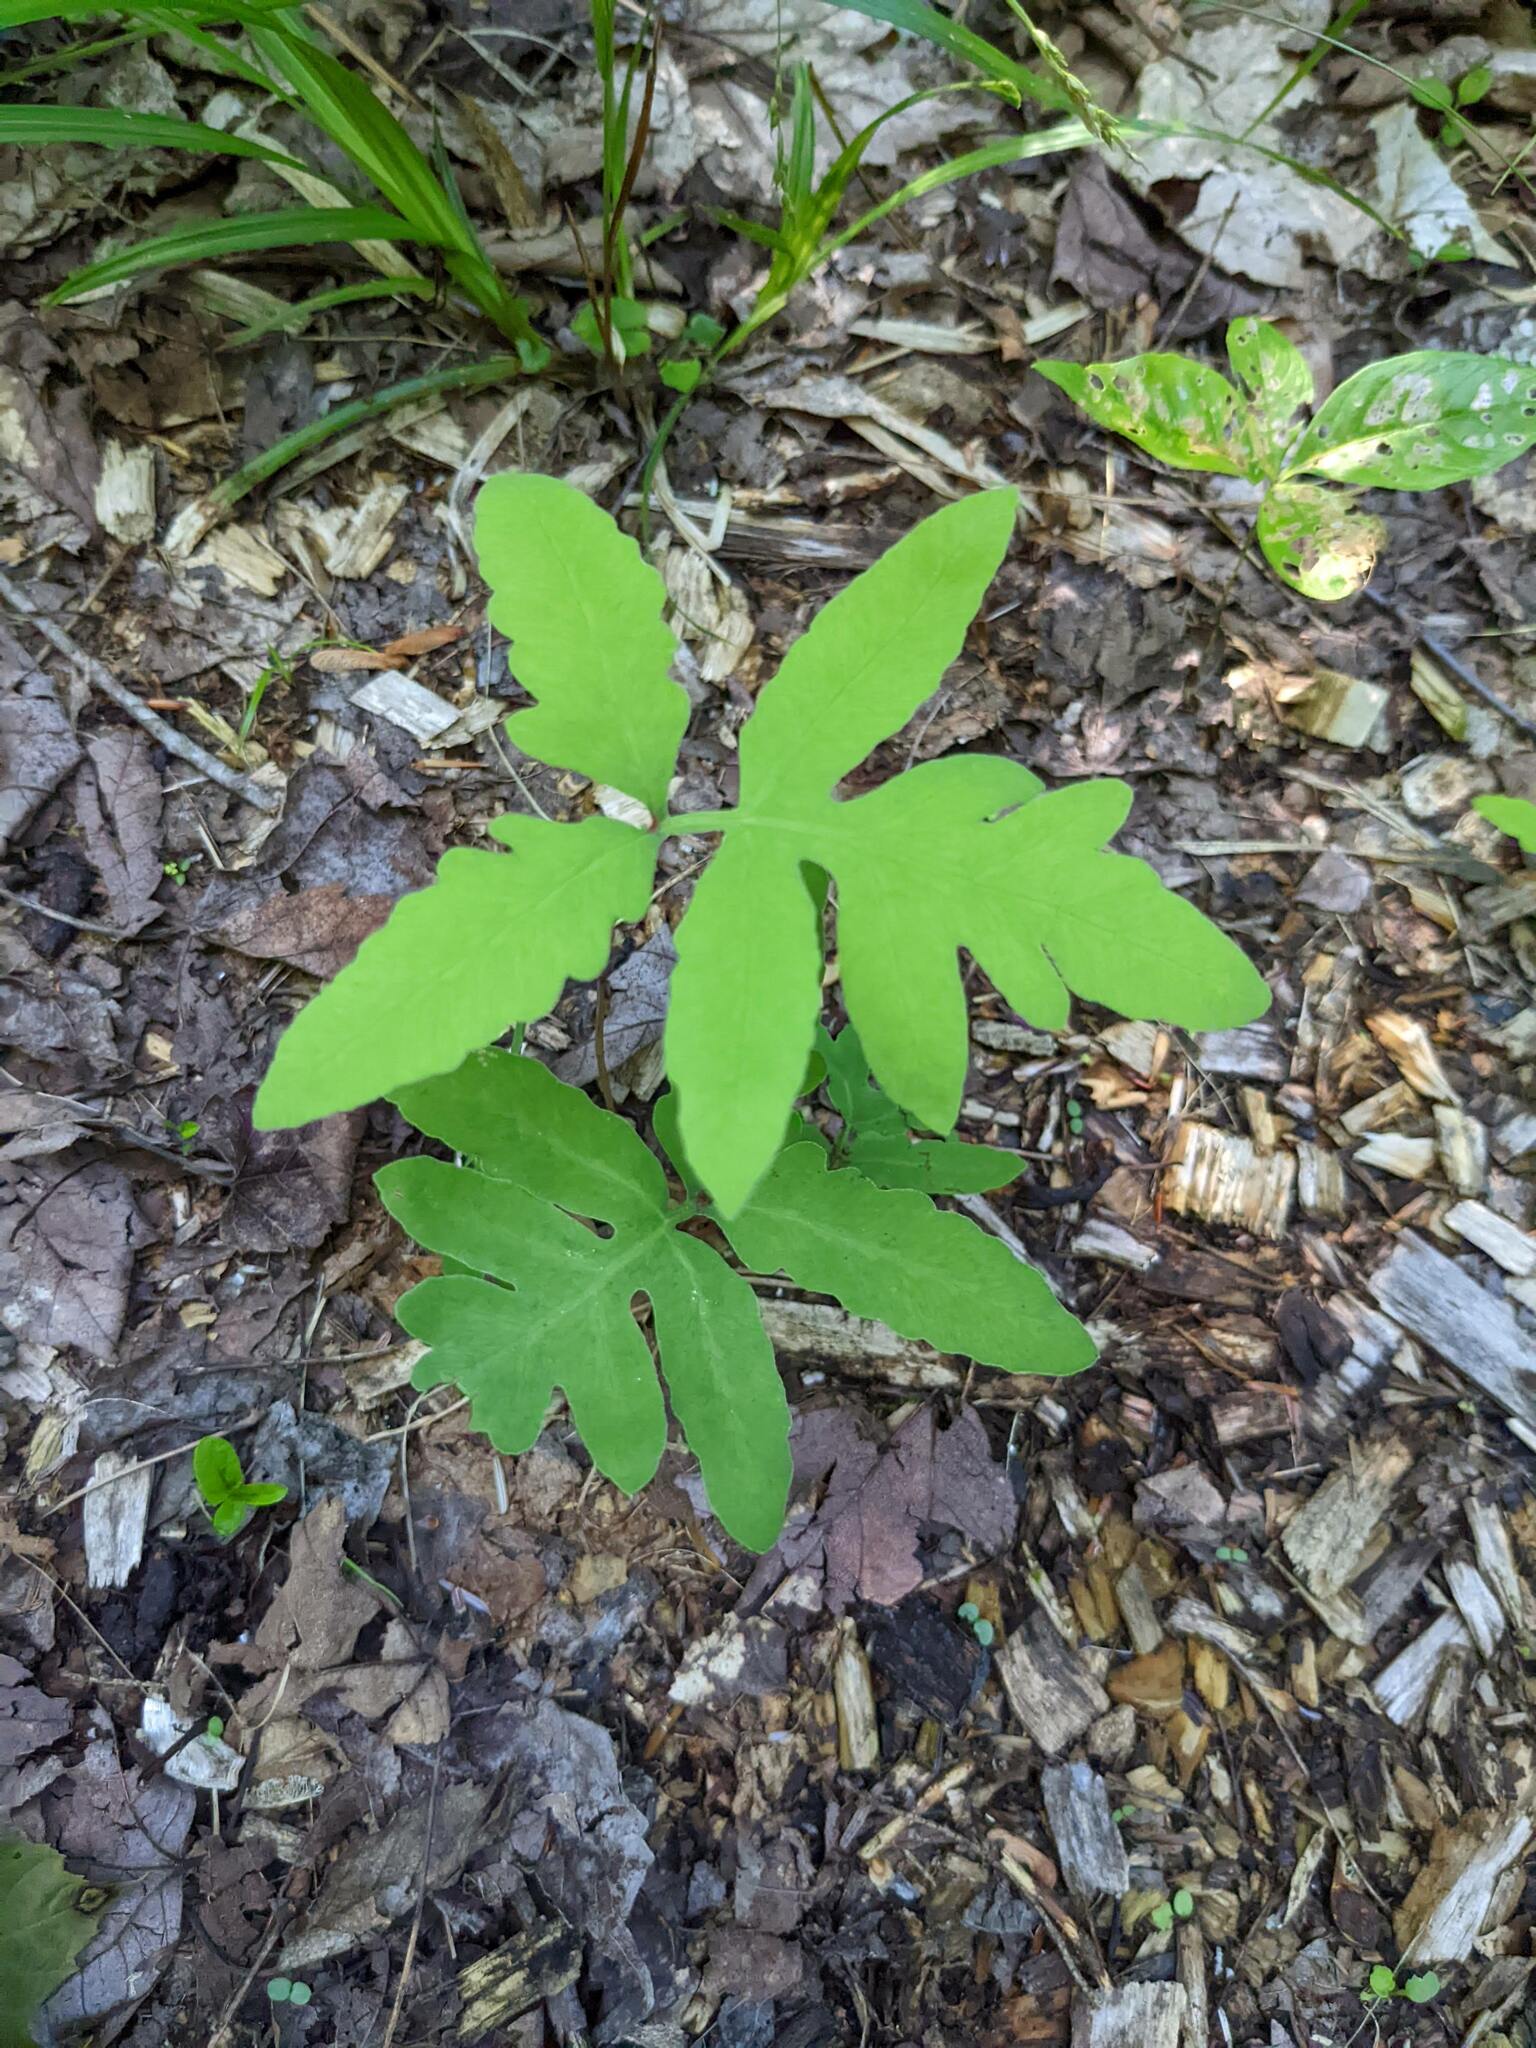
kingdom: Plantae
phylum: Tracheophyta
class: Polypodiopsida
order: Polypodiales
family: Onocleaceae
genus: Onoclea
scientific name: Onoclea sensibilis
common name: Sensitive fern
